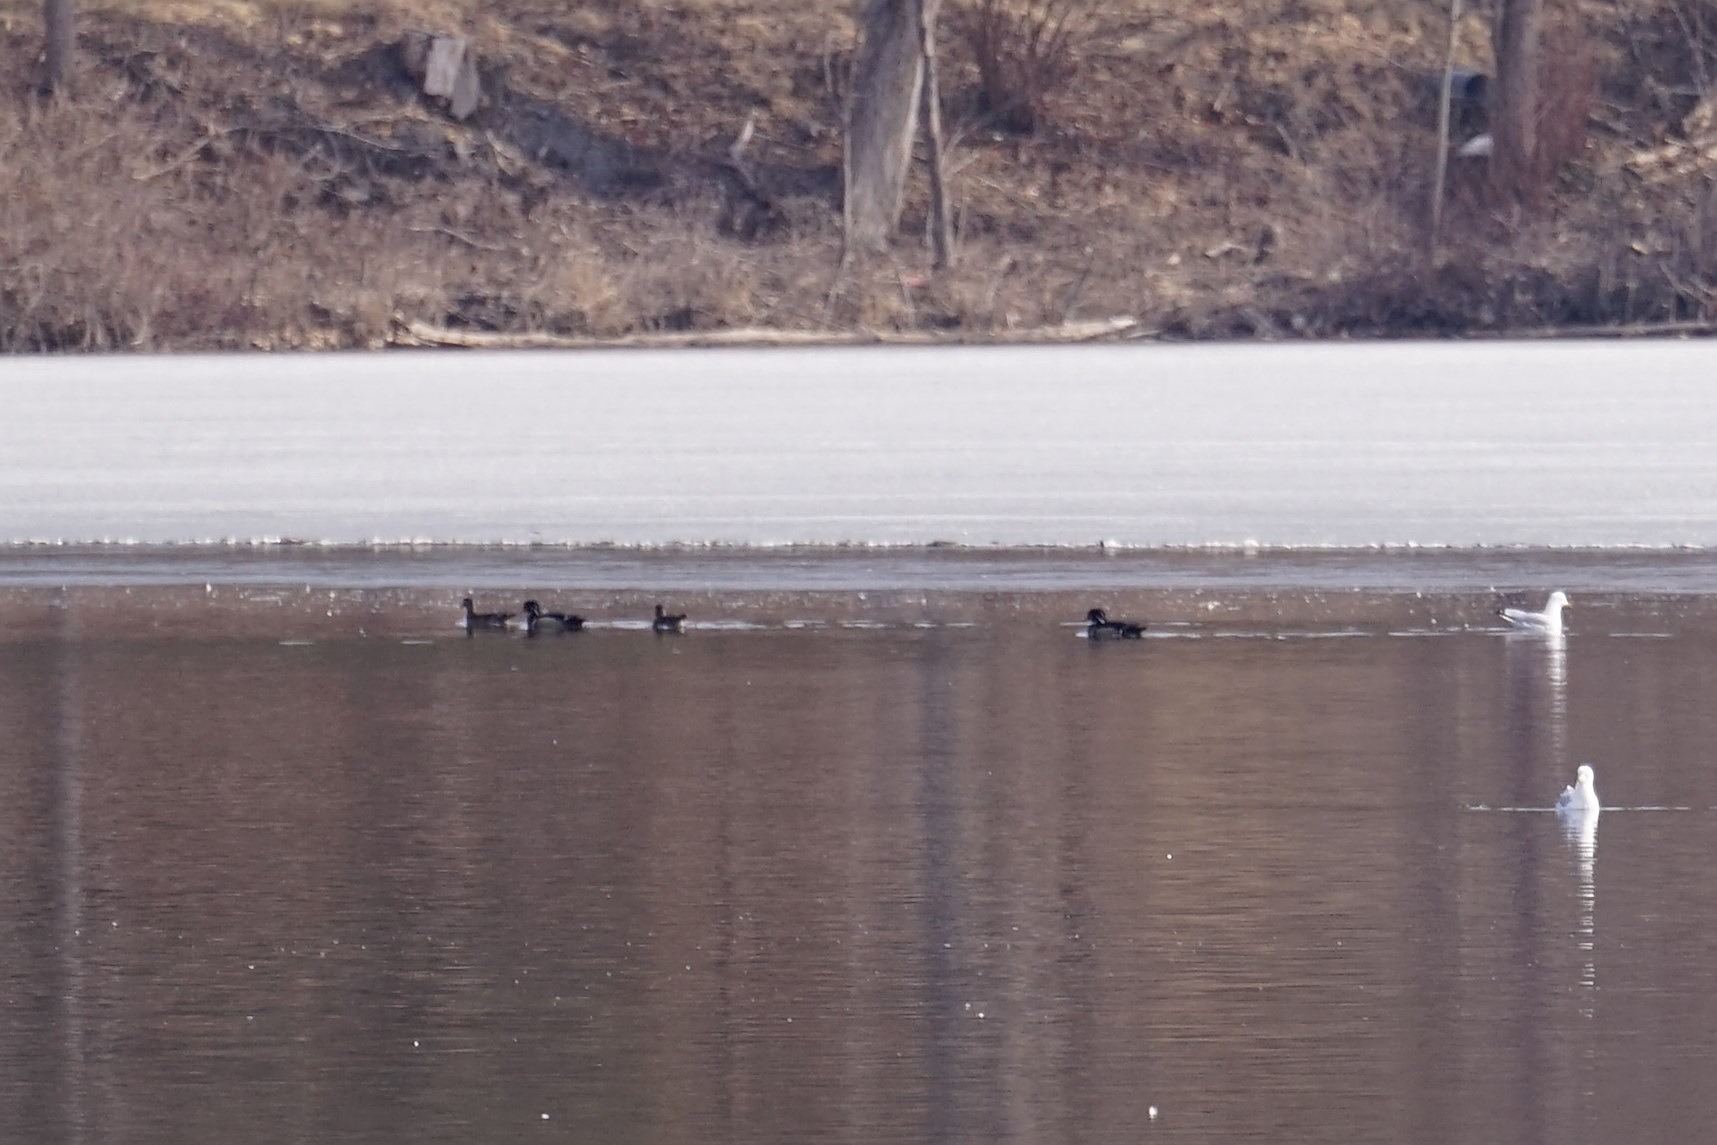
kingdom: Animalia
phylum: Chordata
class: Aves
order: Anseriformes
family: Anatidae
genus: Aix
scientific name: Aix sponsa
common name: Wood duck
